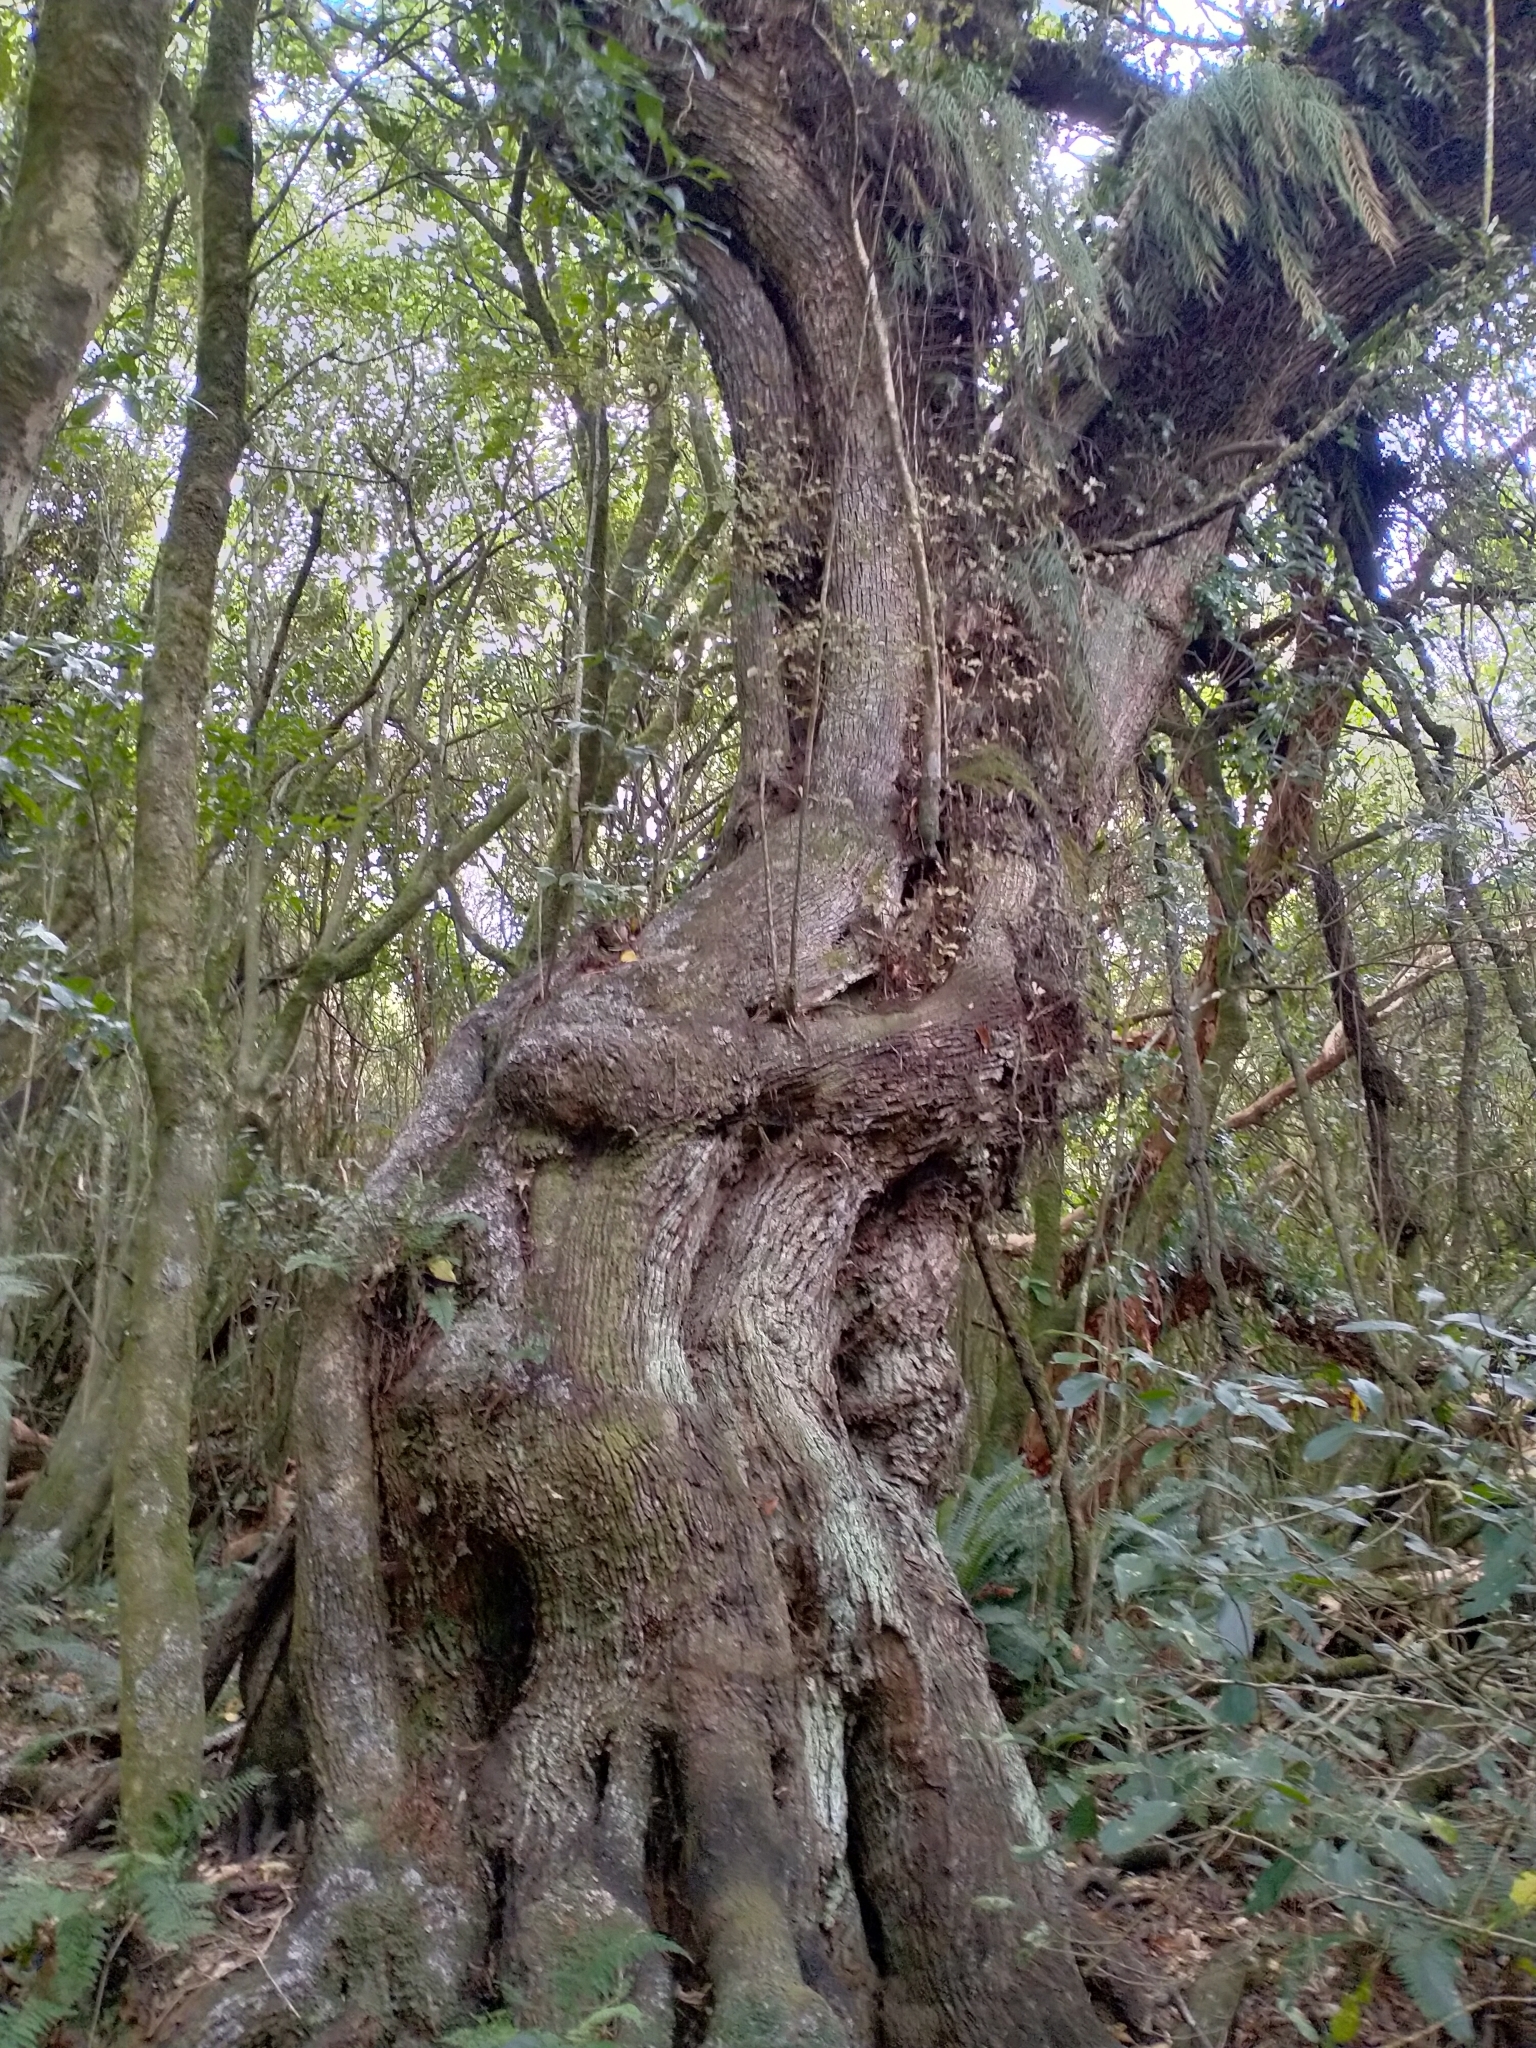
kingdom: Plantae
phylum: Tracheophyta
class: Magnoliopsida
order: Apiales
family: Griseliniaceae
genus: Griselinia
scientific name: Griselinia littoralis
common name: New zealand broadleaf
